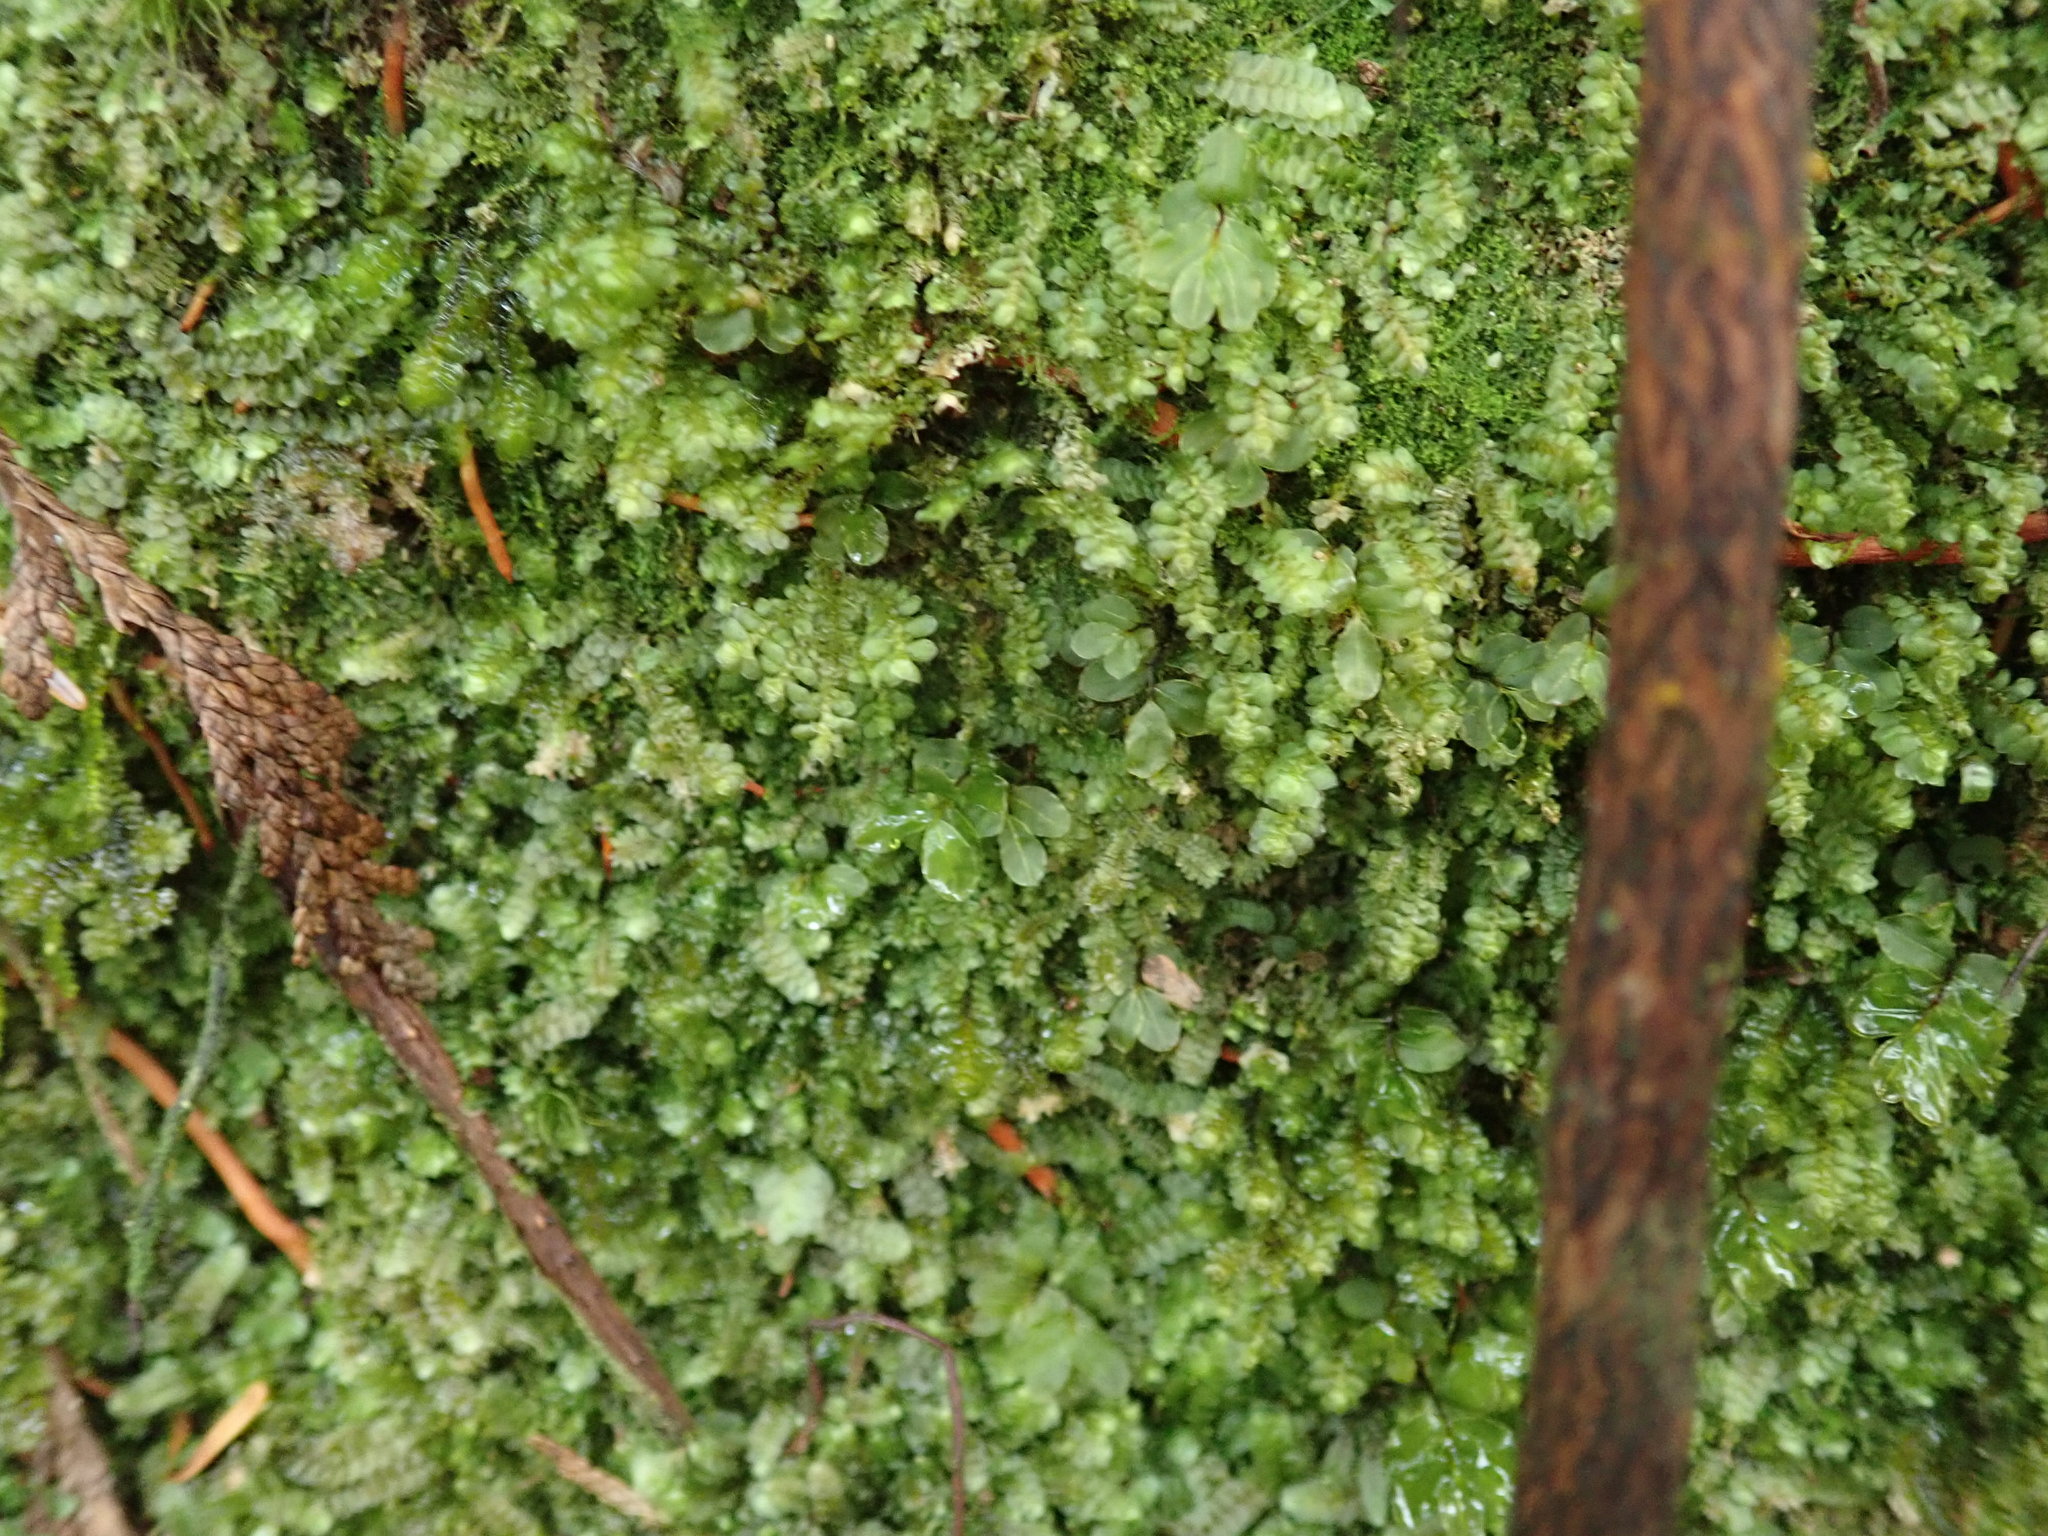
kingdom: Plantae
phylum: Marchantiophyta
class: Jungermanniopsida
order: Jungermanniales
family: Scapaniaceae
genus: Diplophyllum
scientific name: Diplophyllum albicans
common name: White earwort
